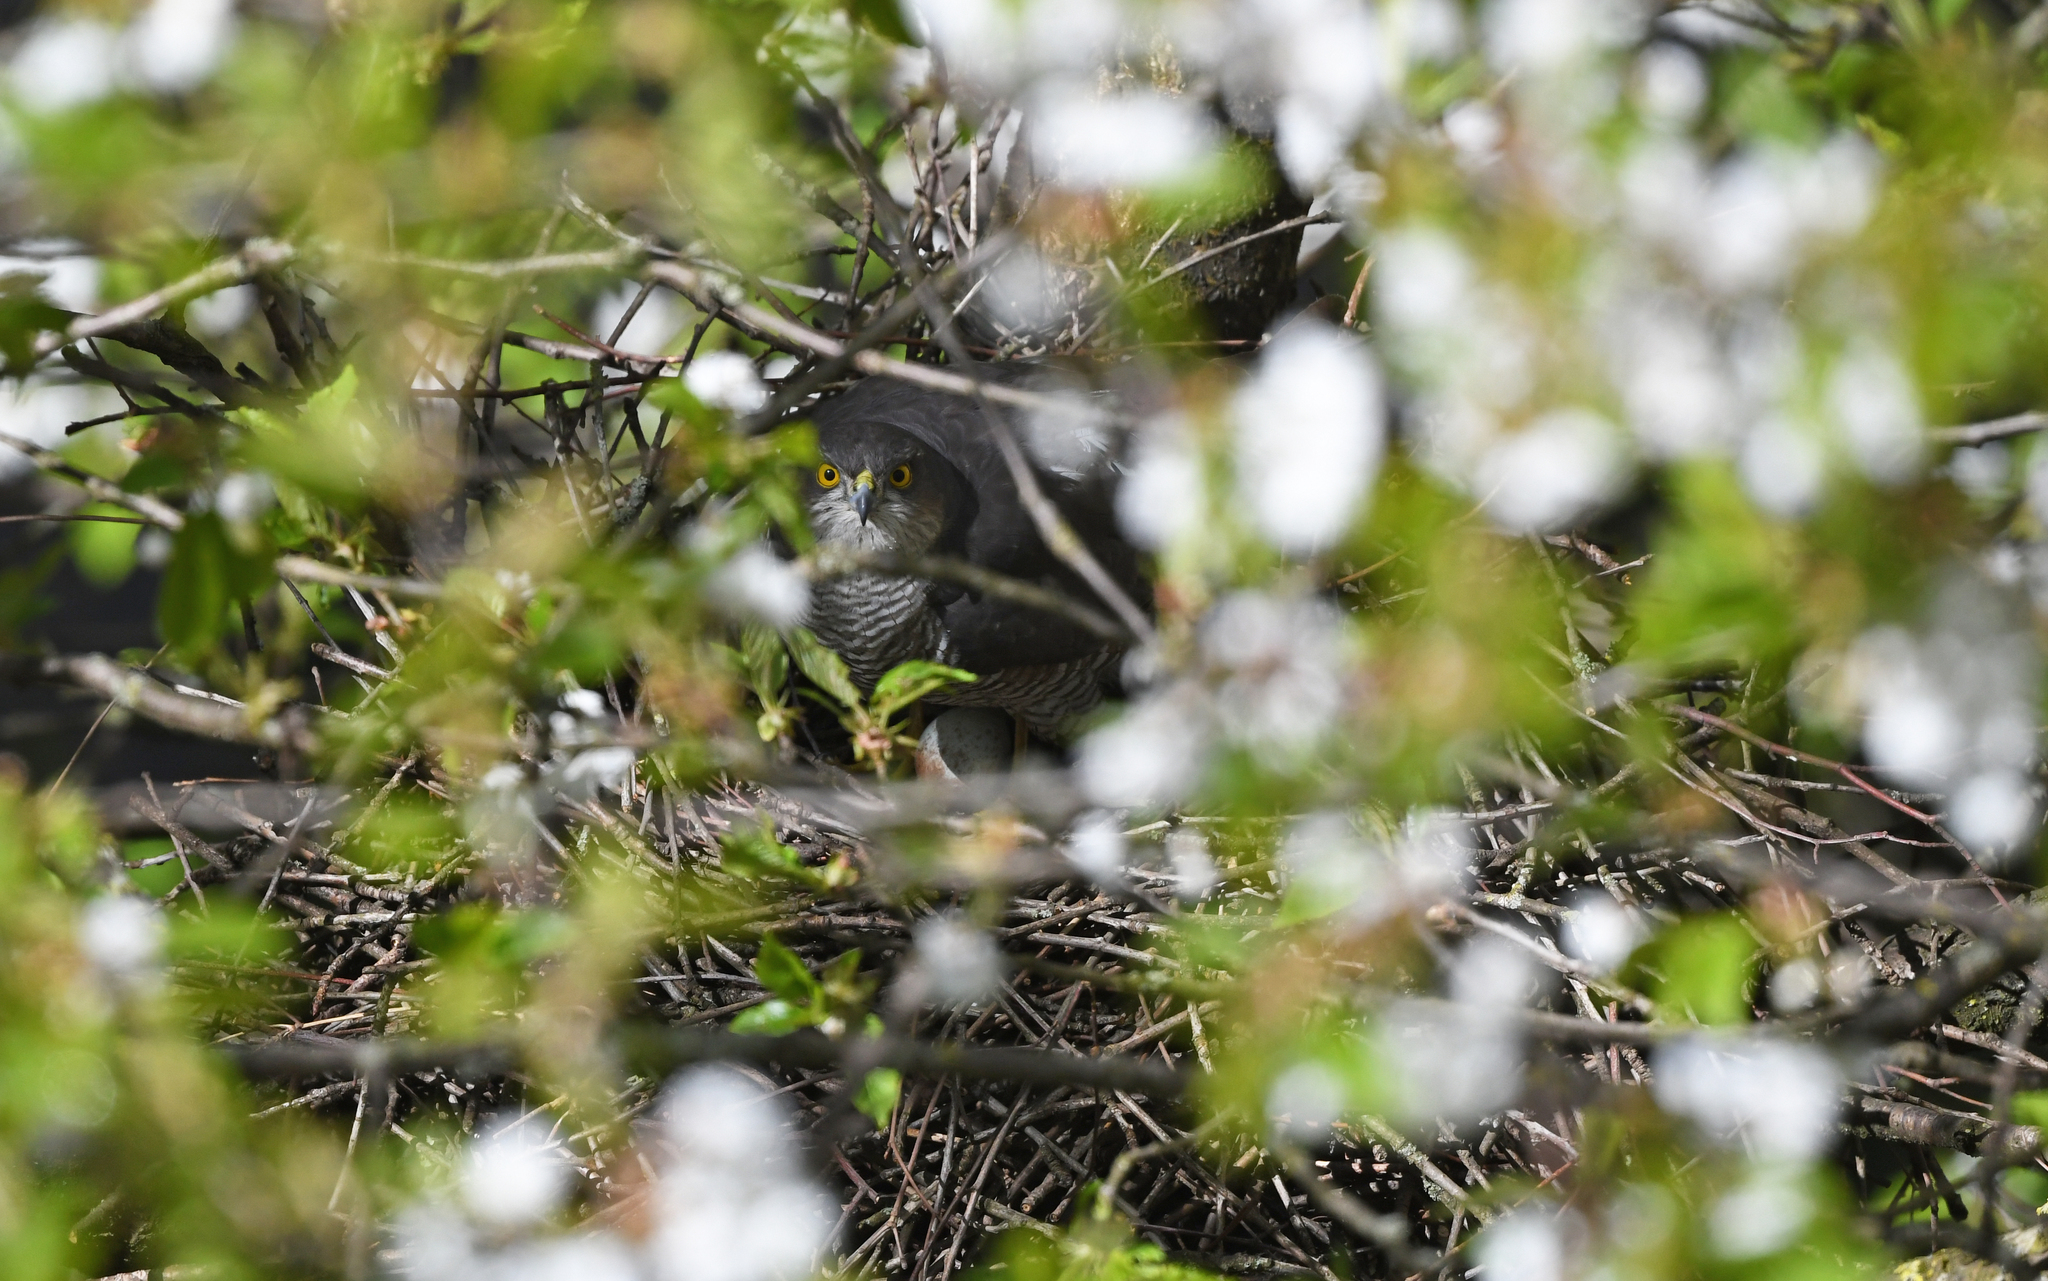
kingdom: Animalia
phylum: Chordata
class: Aves
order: Accipitriformes
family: Accipitridae
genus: Accipiter
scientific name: Accipiter nisus
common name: Eurasian sparrowhawk
